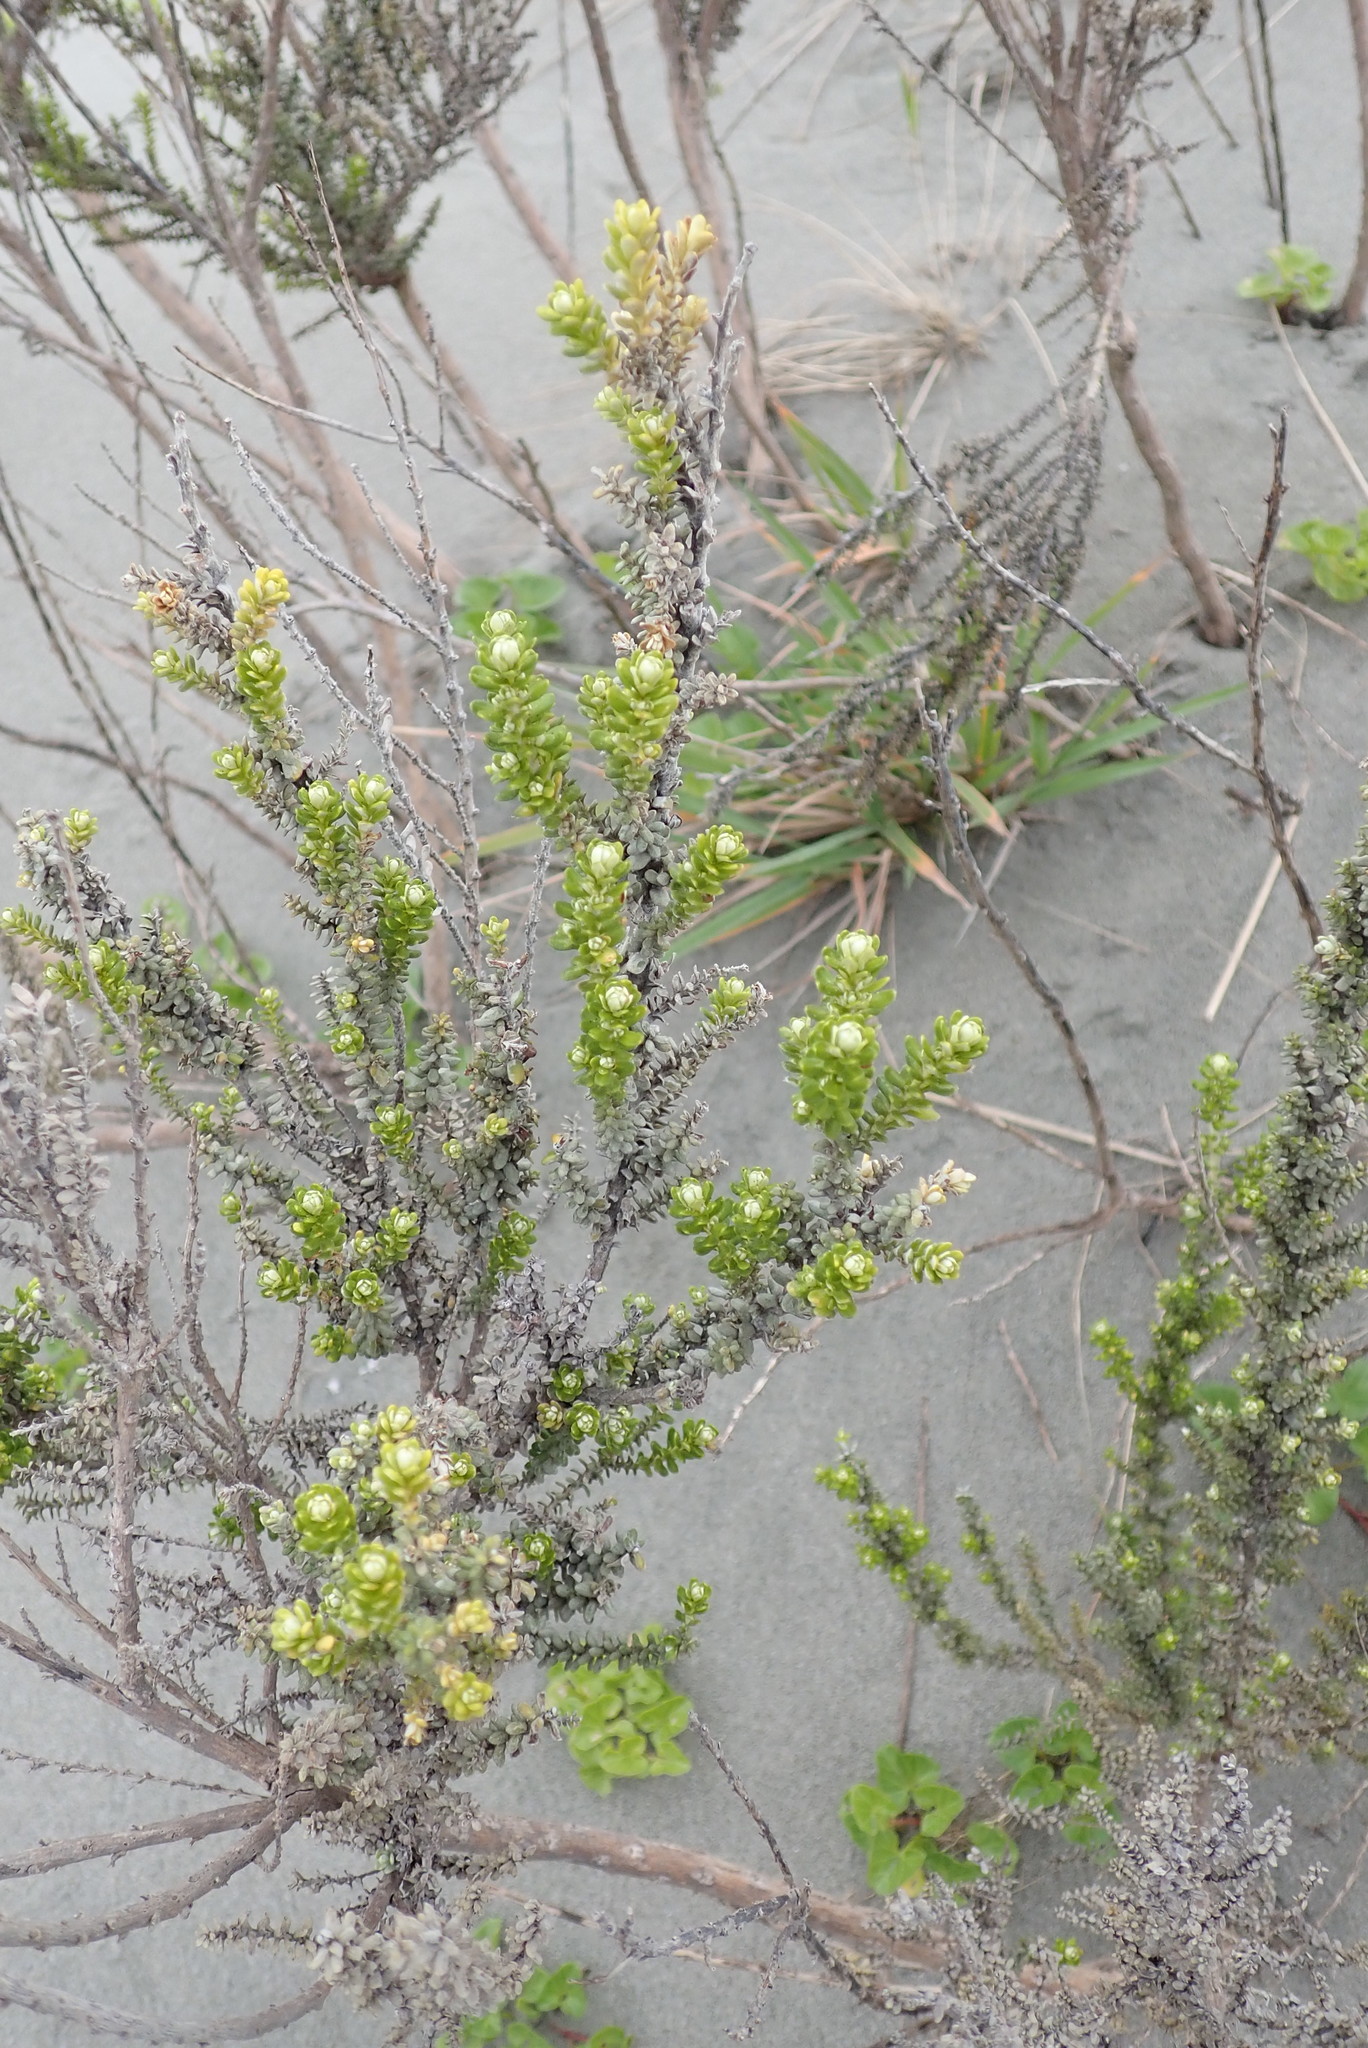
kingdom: Plantae
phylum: Tracheophyta
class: Magnoliopsida
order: Asterales
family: Asteraceae
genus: Ozothamnus
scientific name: Ozothamnus leptophyllus
